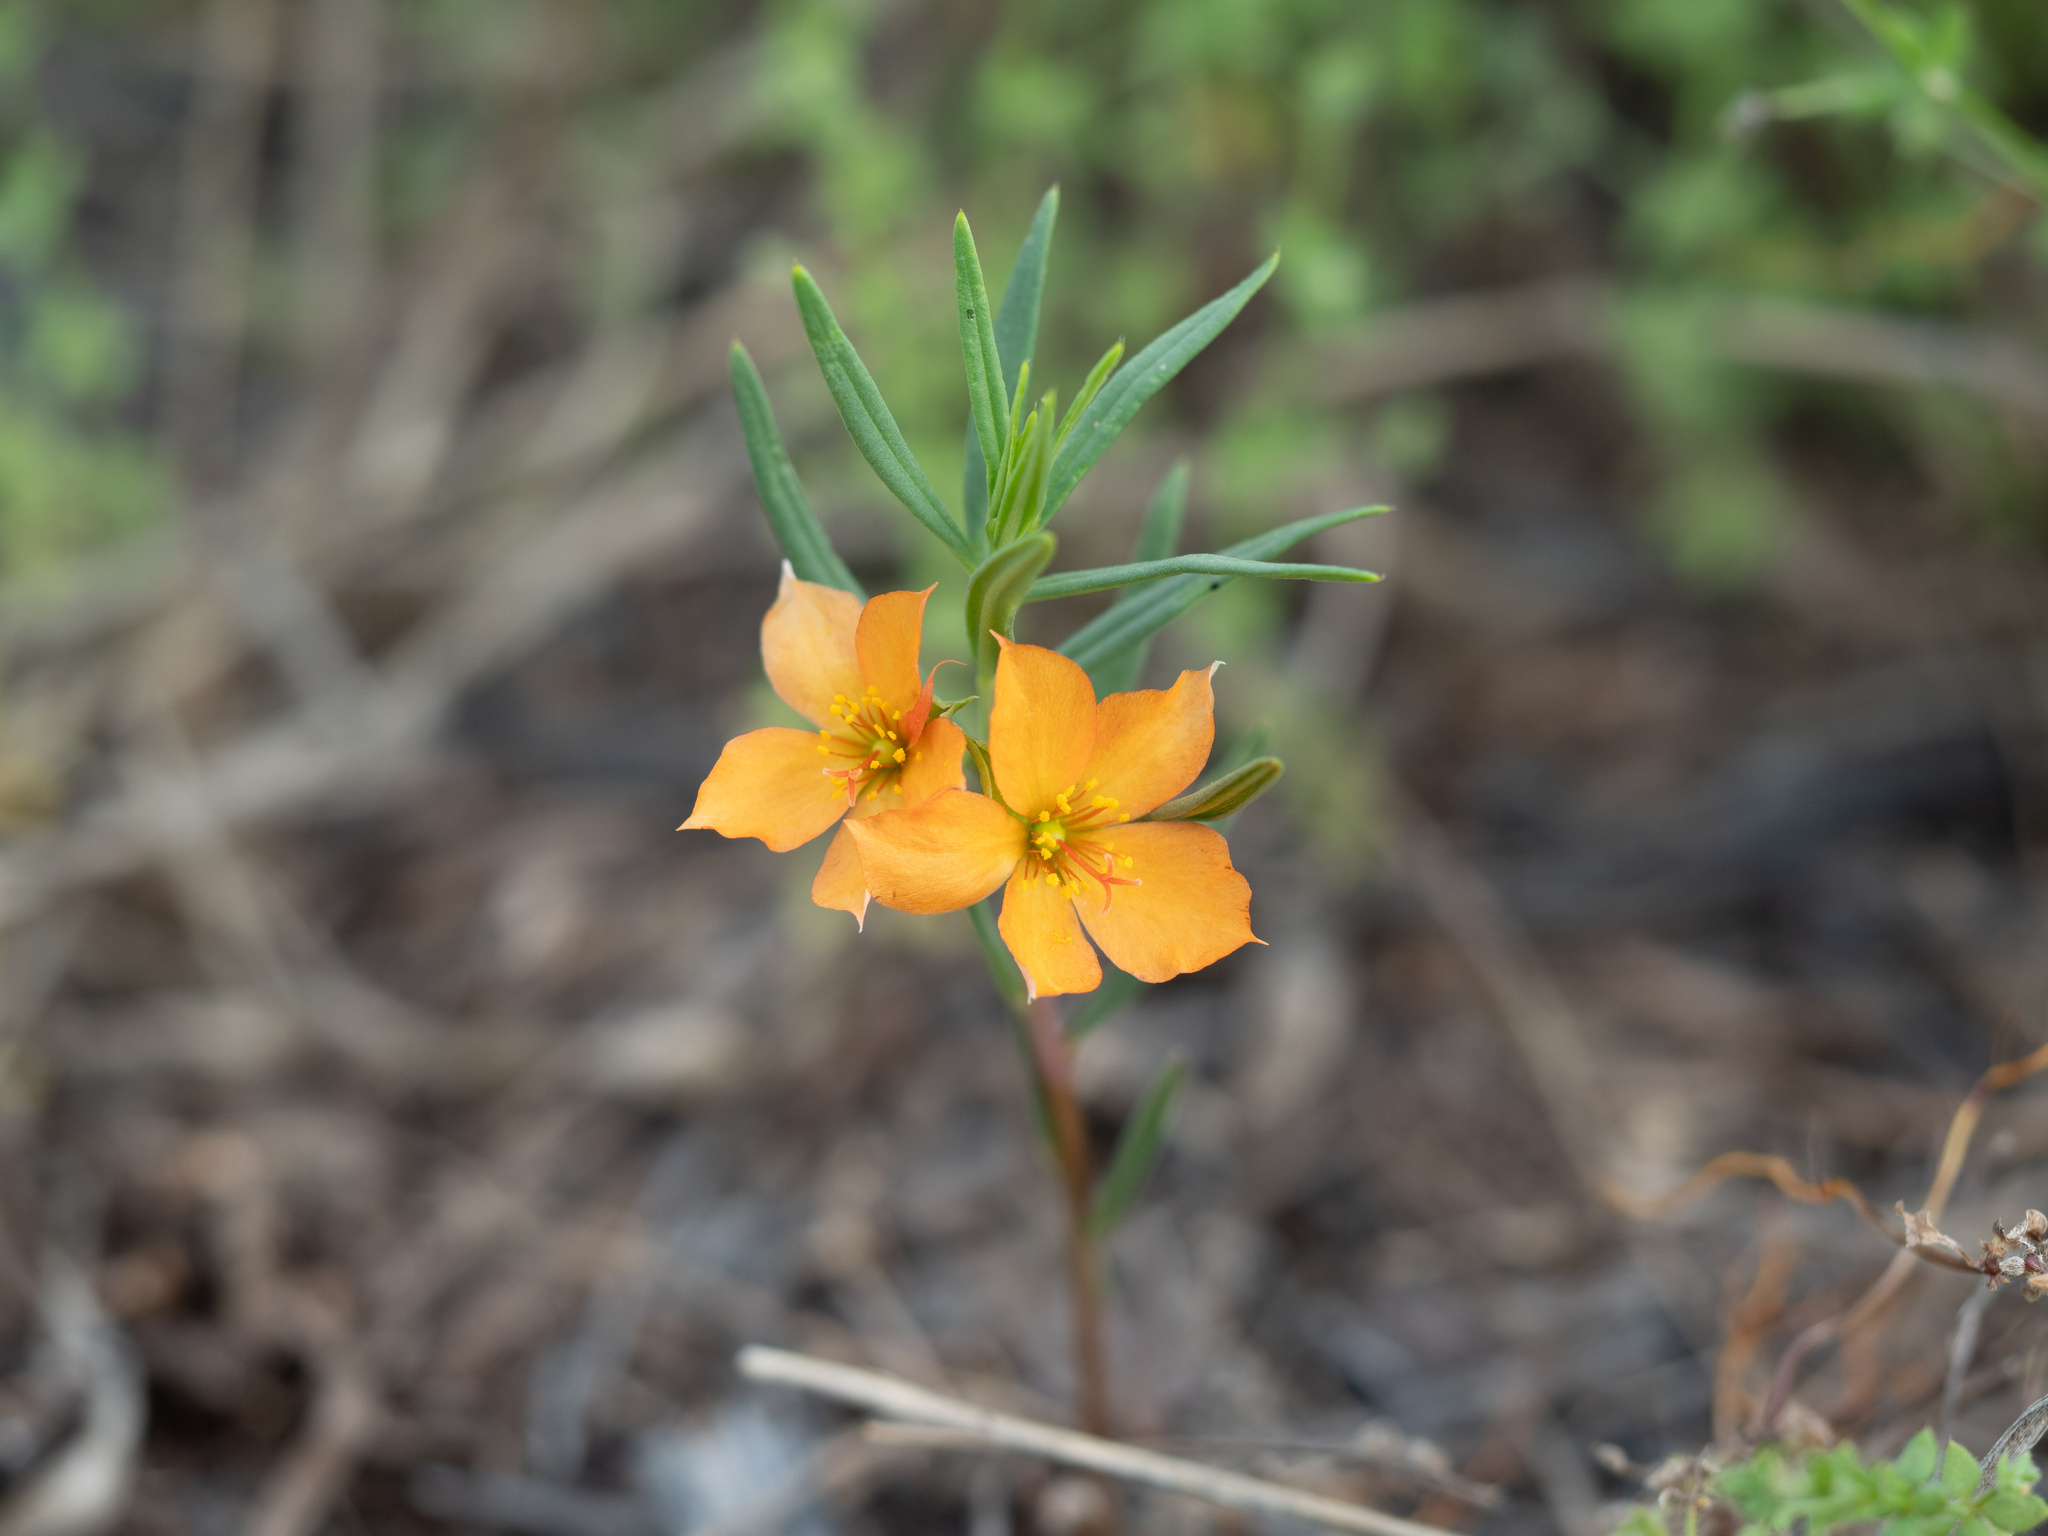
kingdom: Plantae
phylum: Tracheophyta
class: Magnoliopsida
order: Caryophyllales
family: Montiaceae
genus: Phemeranthus
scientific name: Phemeranthus aurantiacus
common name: Orange fameflower
